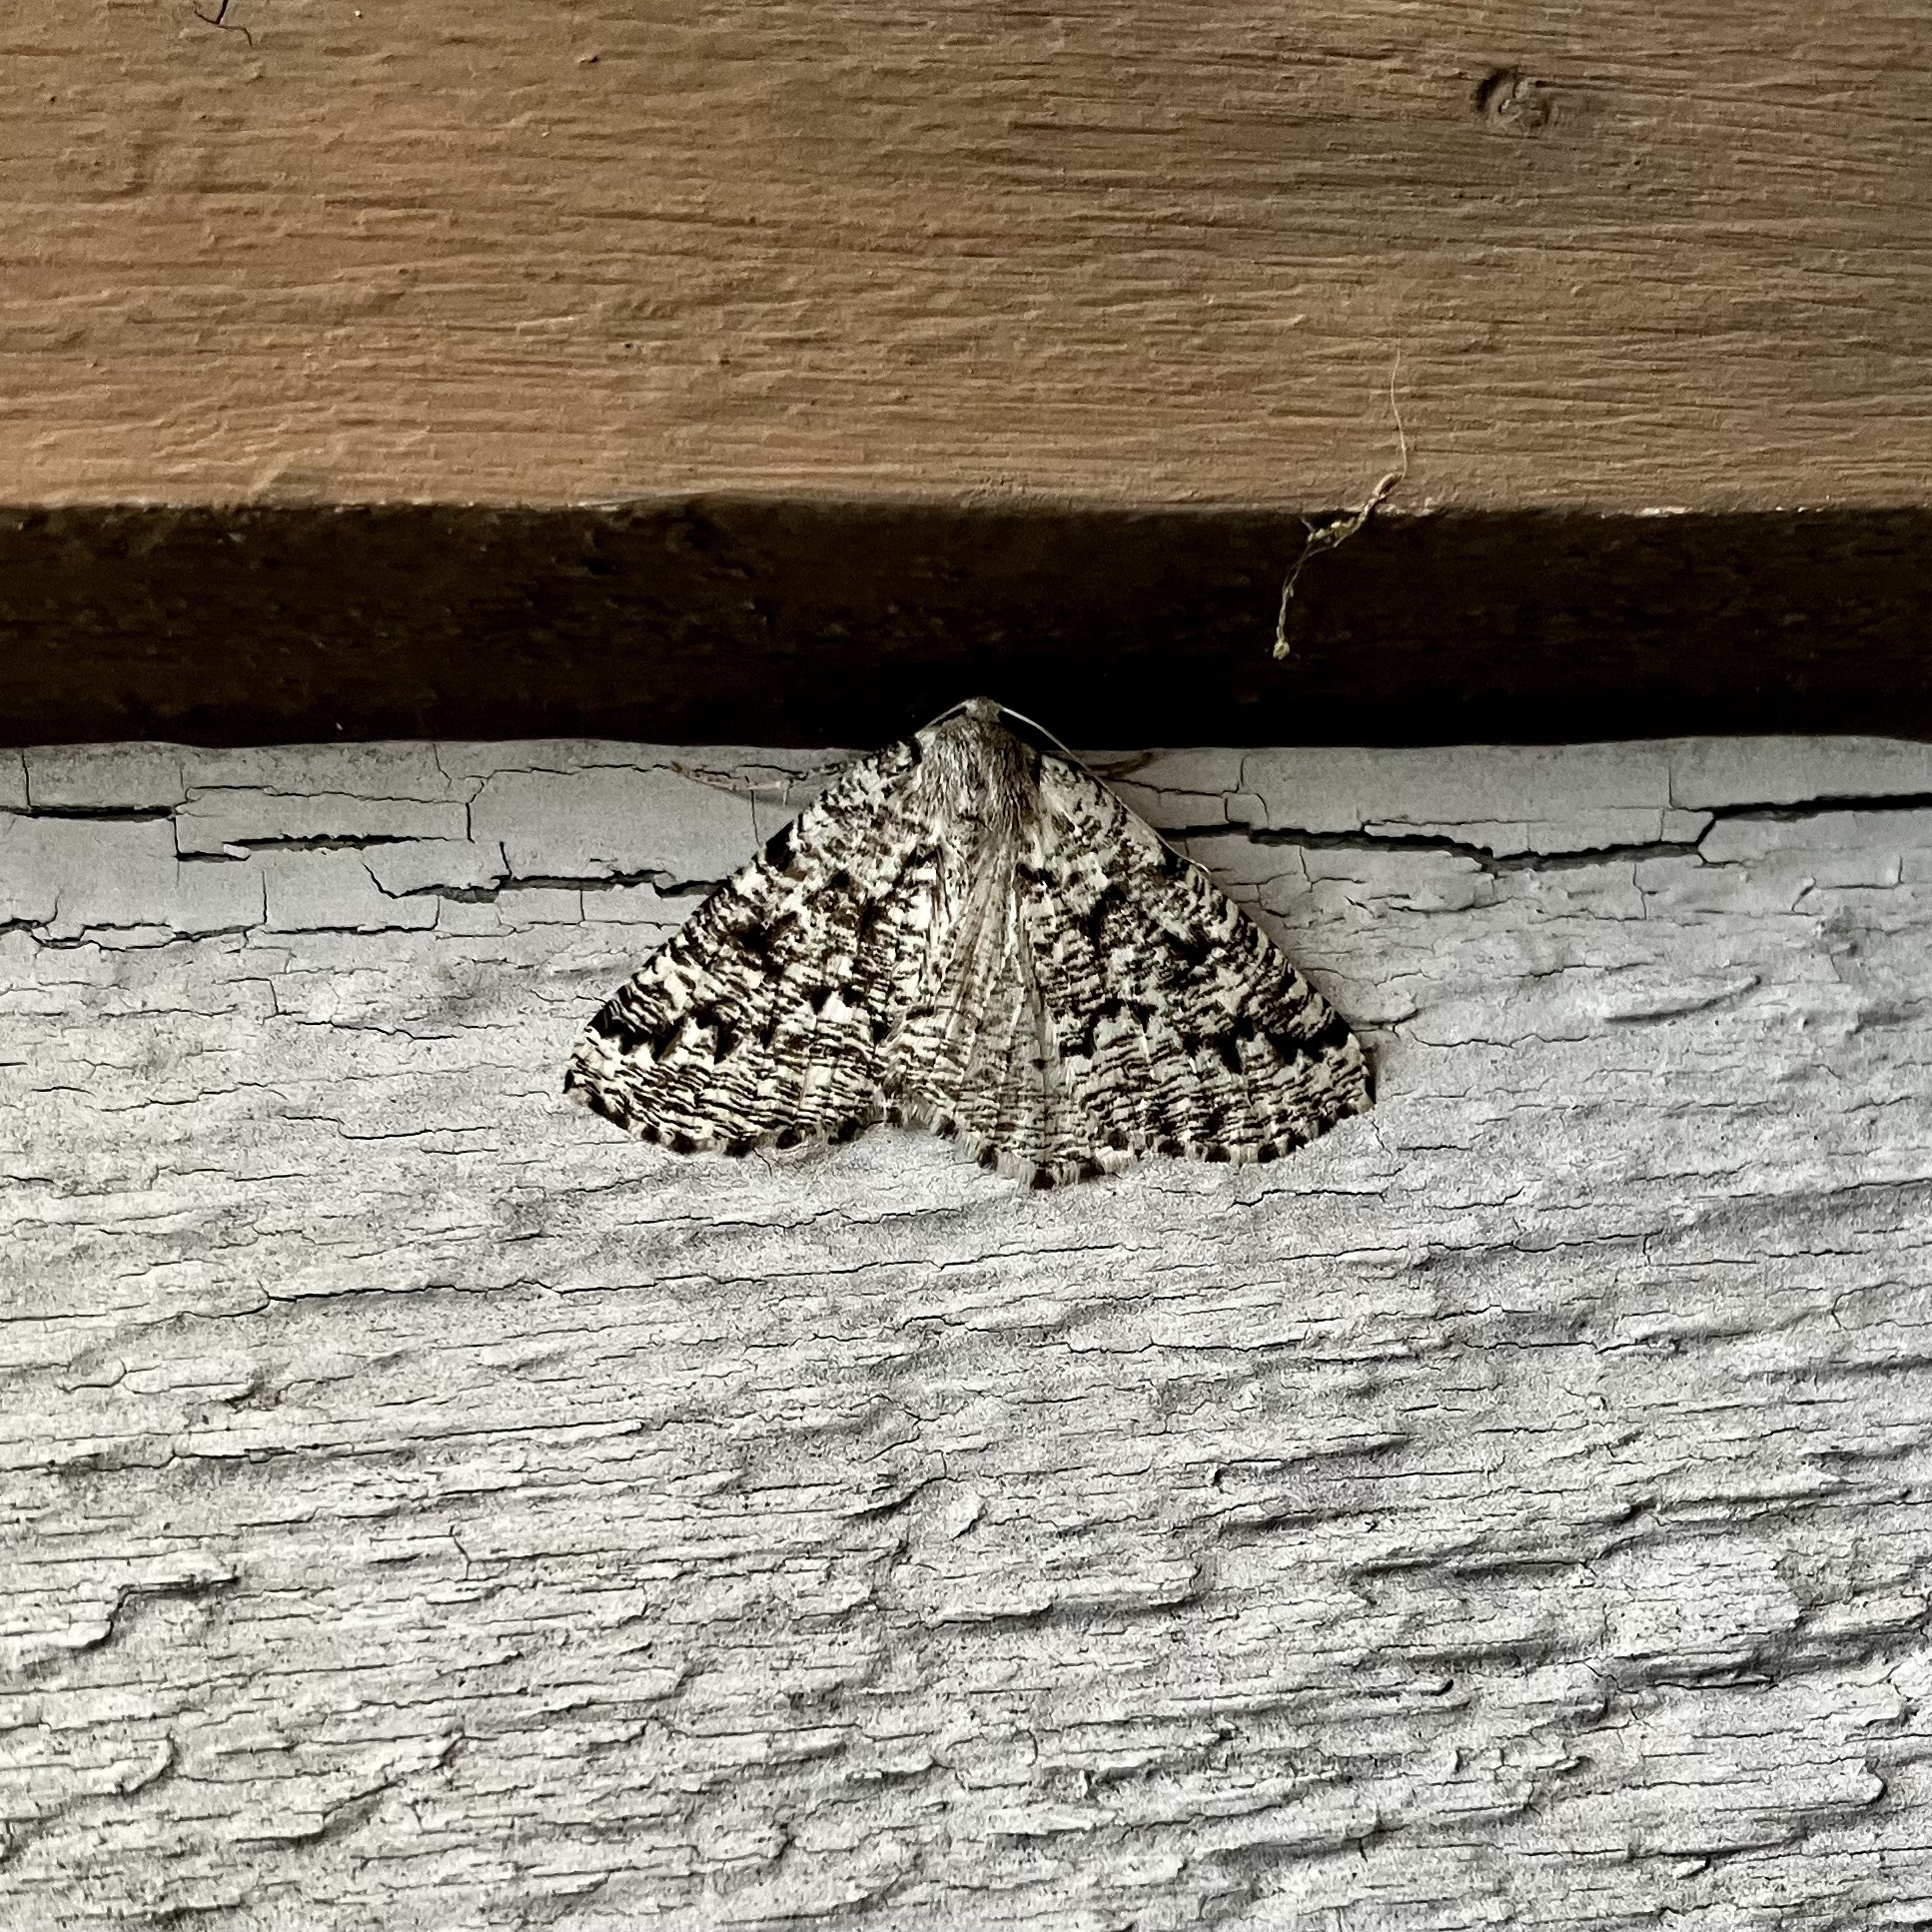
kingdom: Animalia
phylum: Arthropoda
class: Insecta
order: Lepidoptera
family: Geometridae
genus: Sabulodes
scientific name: Sabulodes
